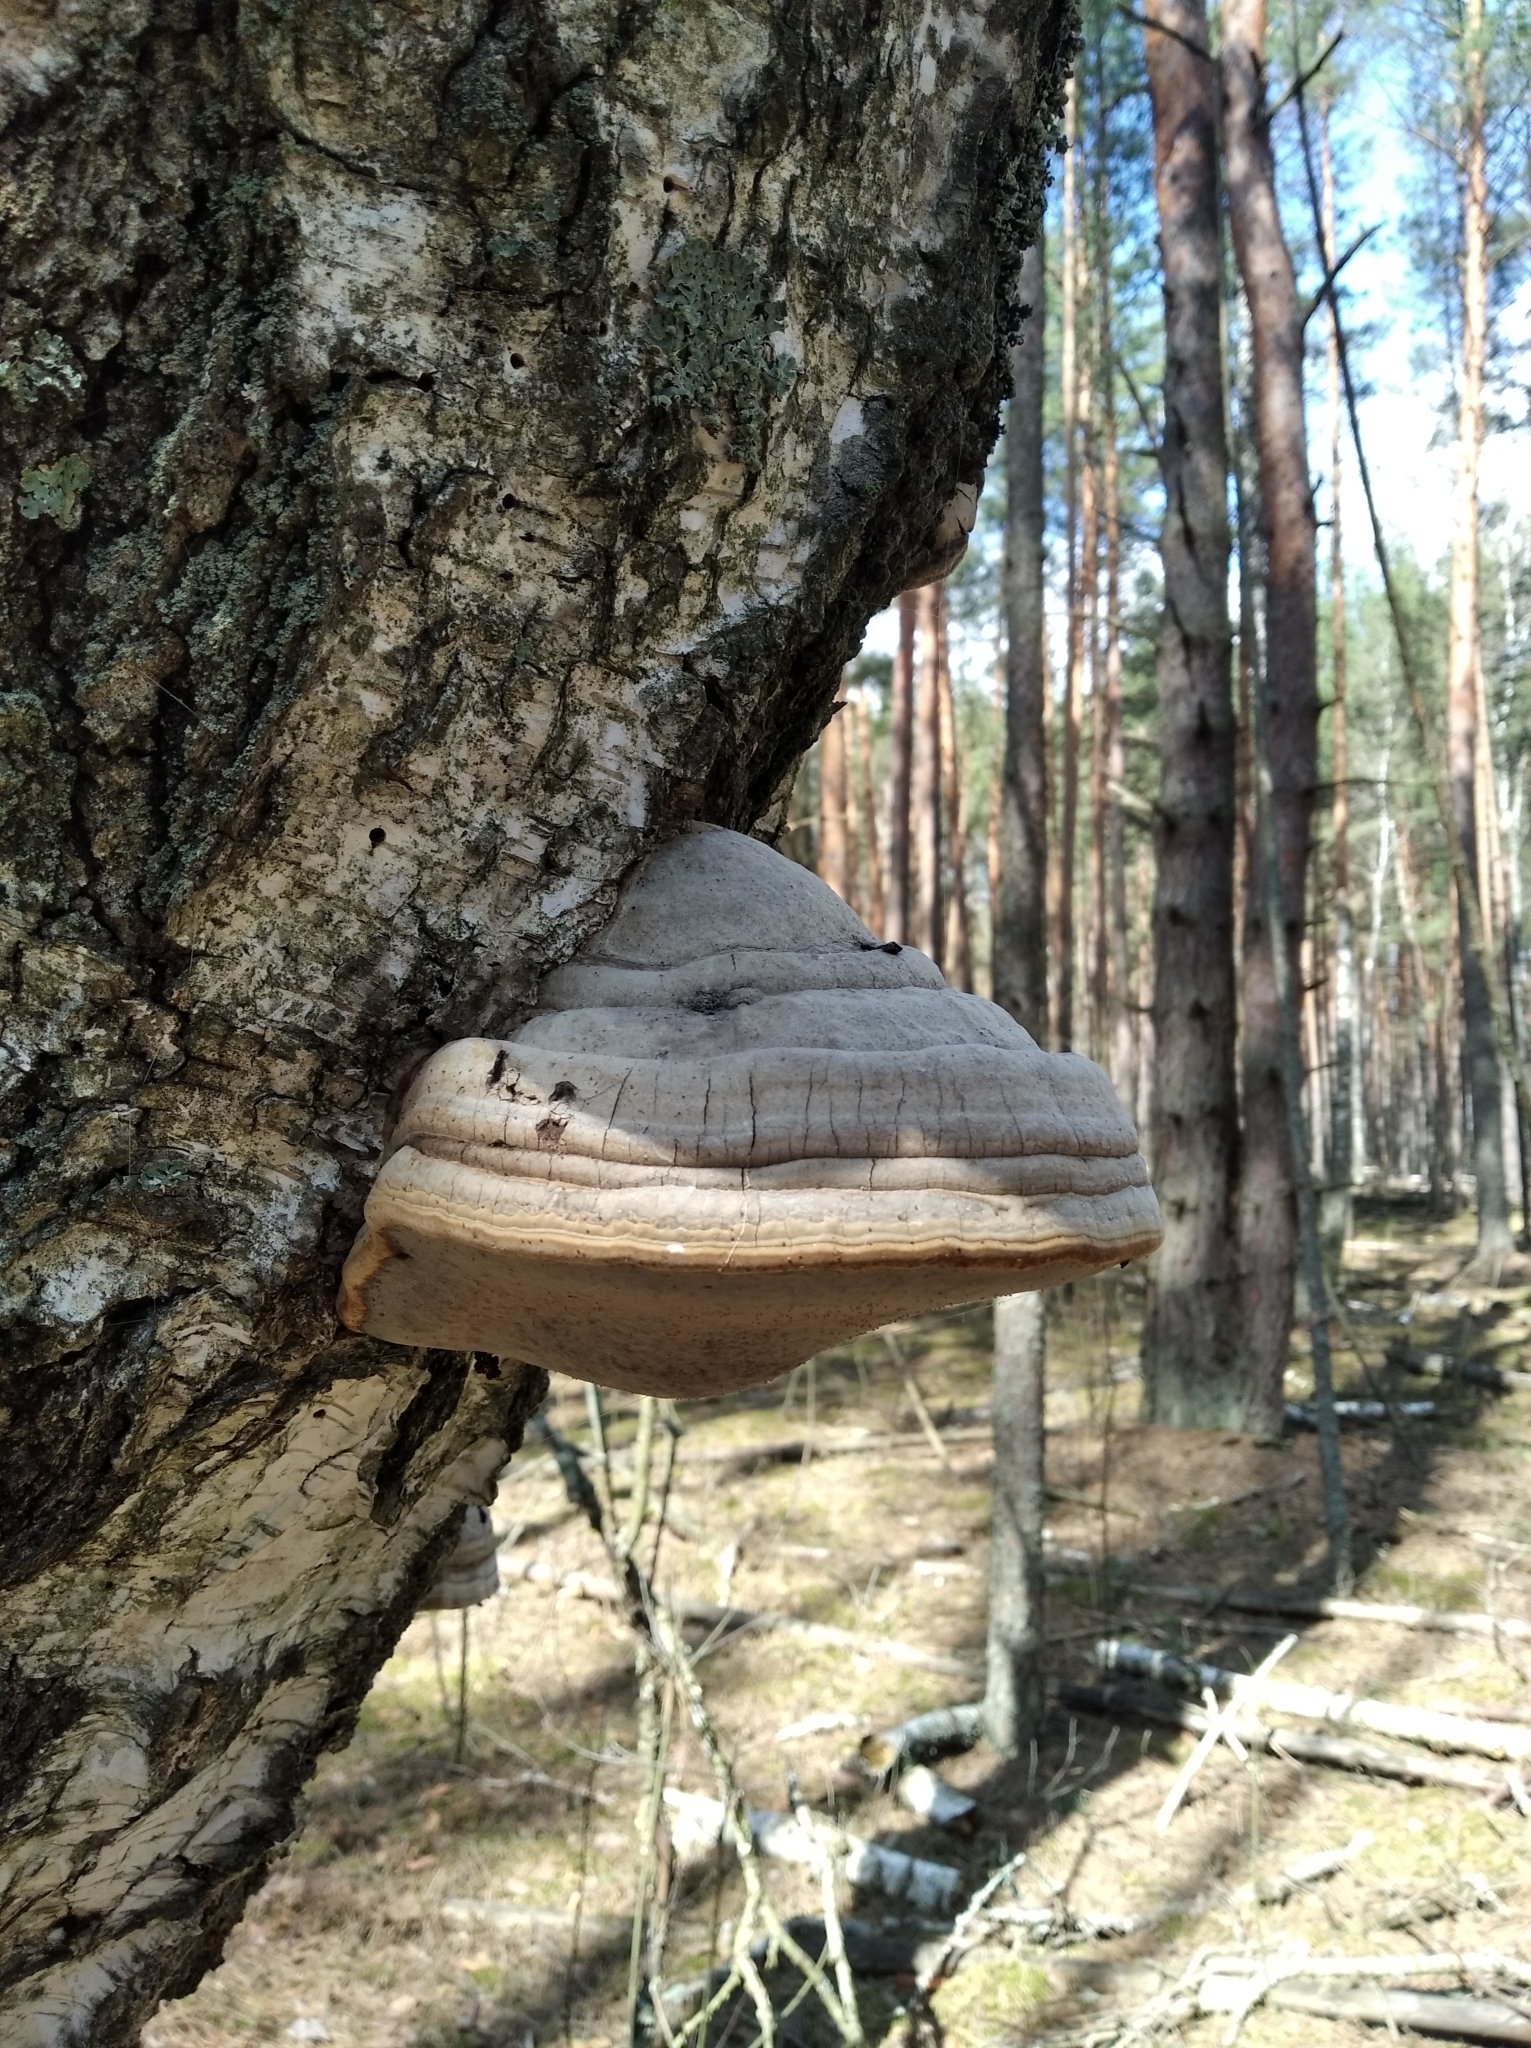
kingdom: Fungi
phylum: Basidiomycota
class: Agaricomycetes
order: Polyporales
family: Polyporaceae
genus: Fomes
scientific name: Fomes fomentarius
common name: Hoof fungus
